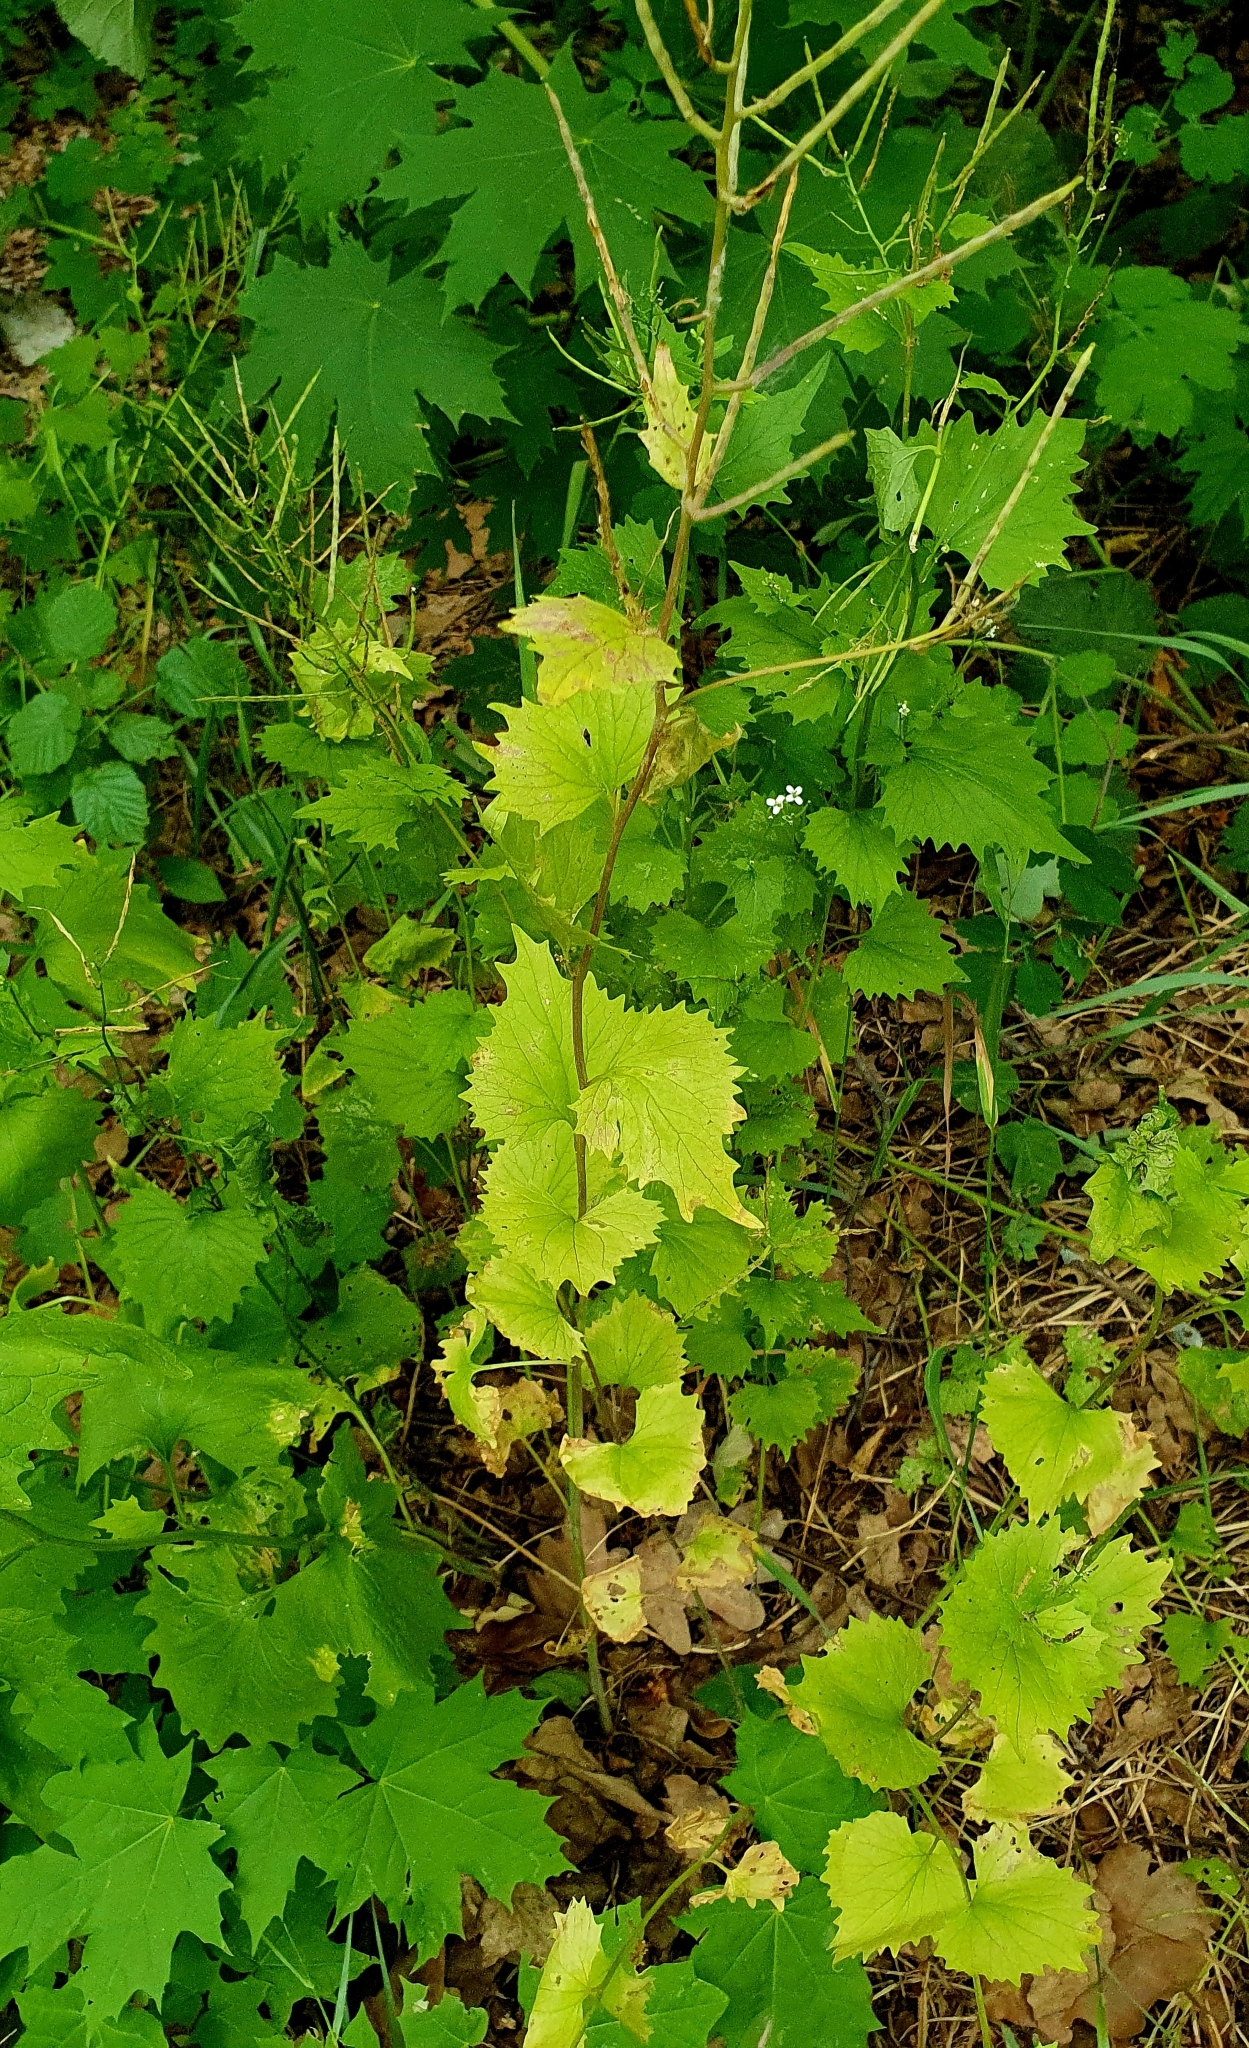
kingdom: Plantae
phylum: Tracheophyta
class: Magnoliopsida
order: Brassicales
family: Brassicaceae
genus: Alliaria
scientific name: Alliaria petiolata
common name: Garlic mustard
